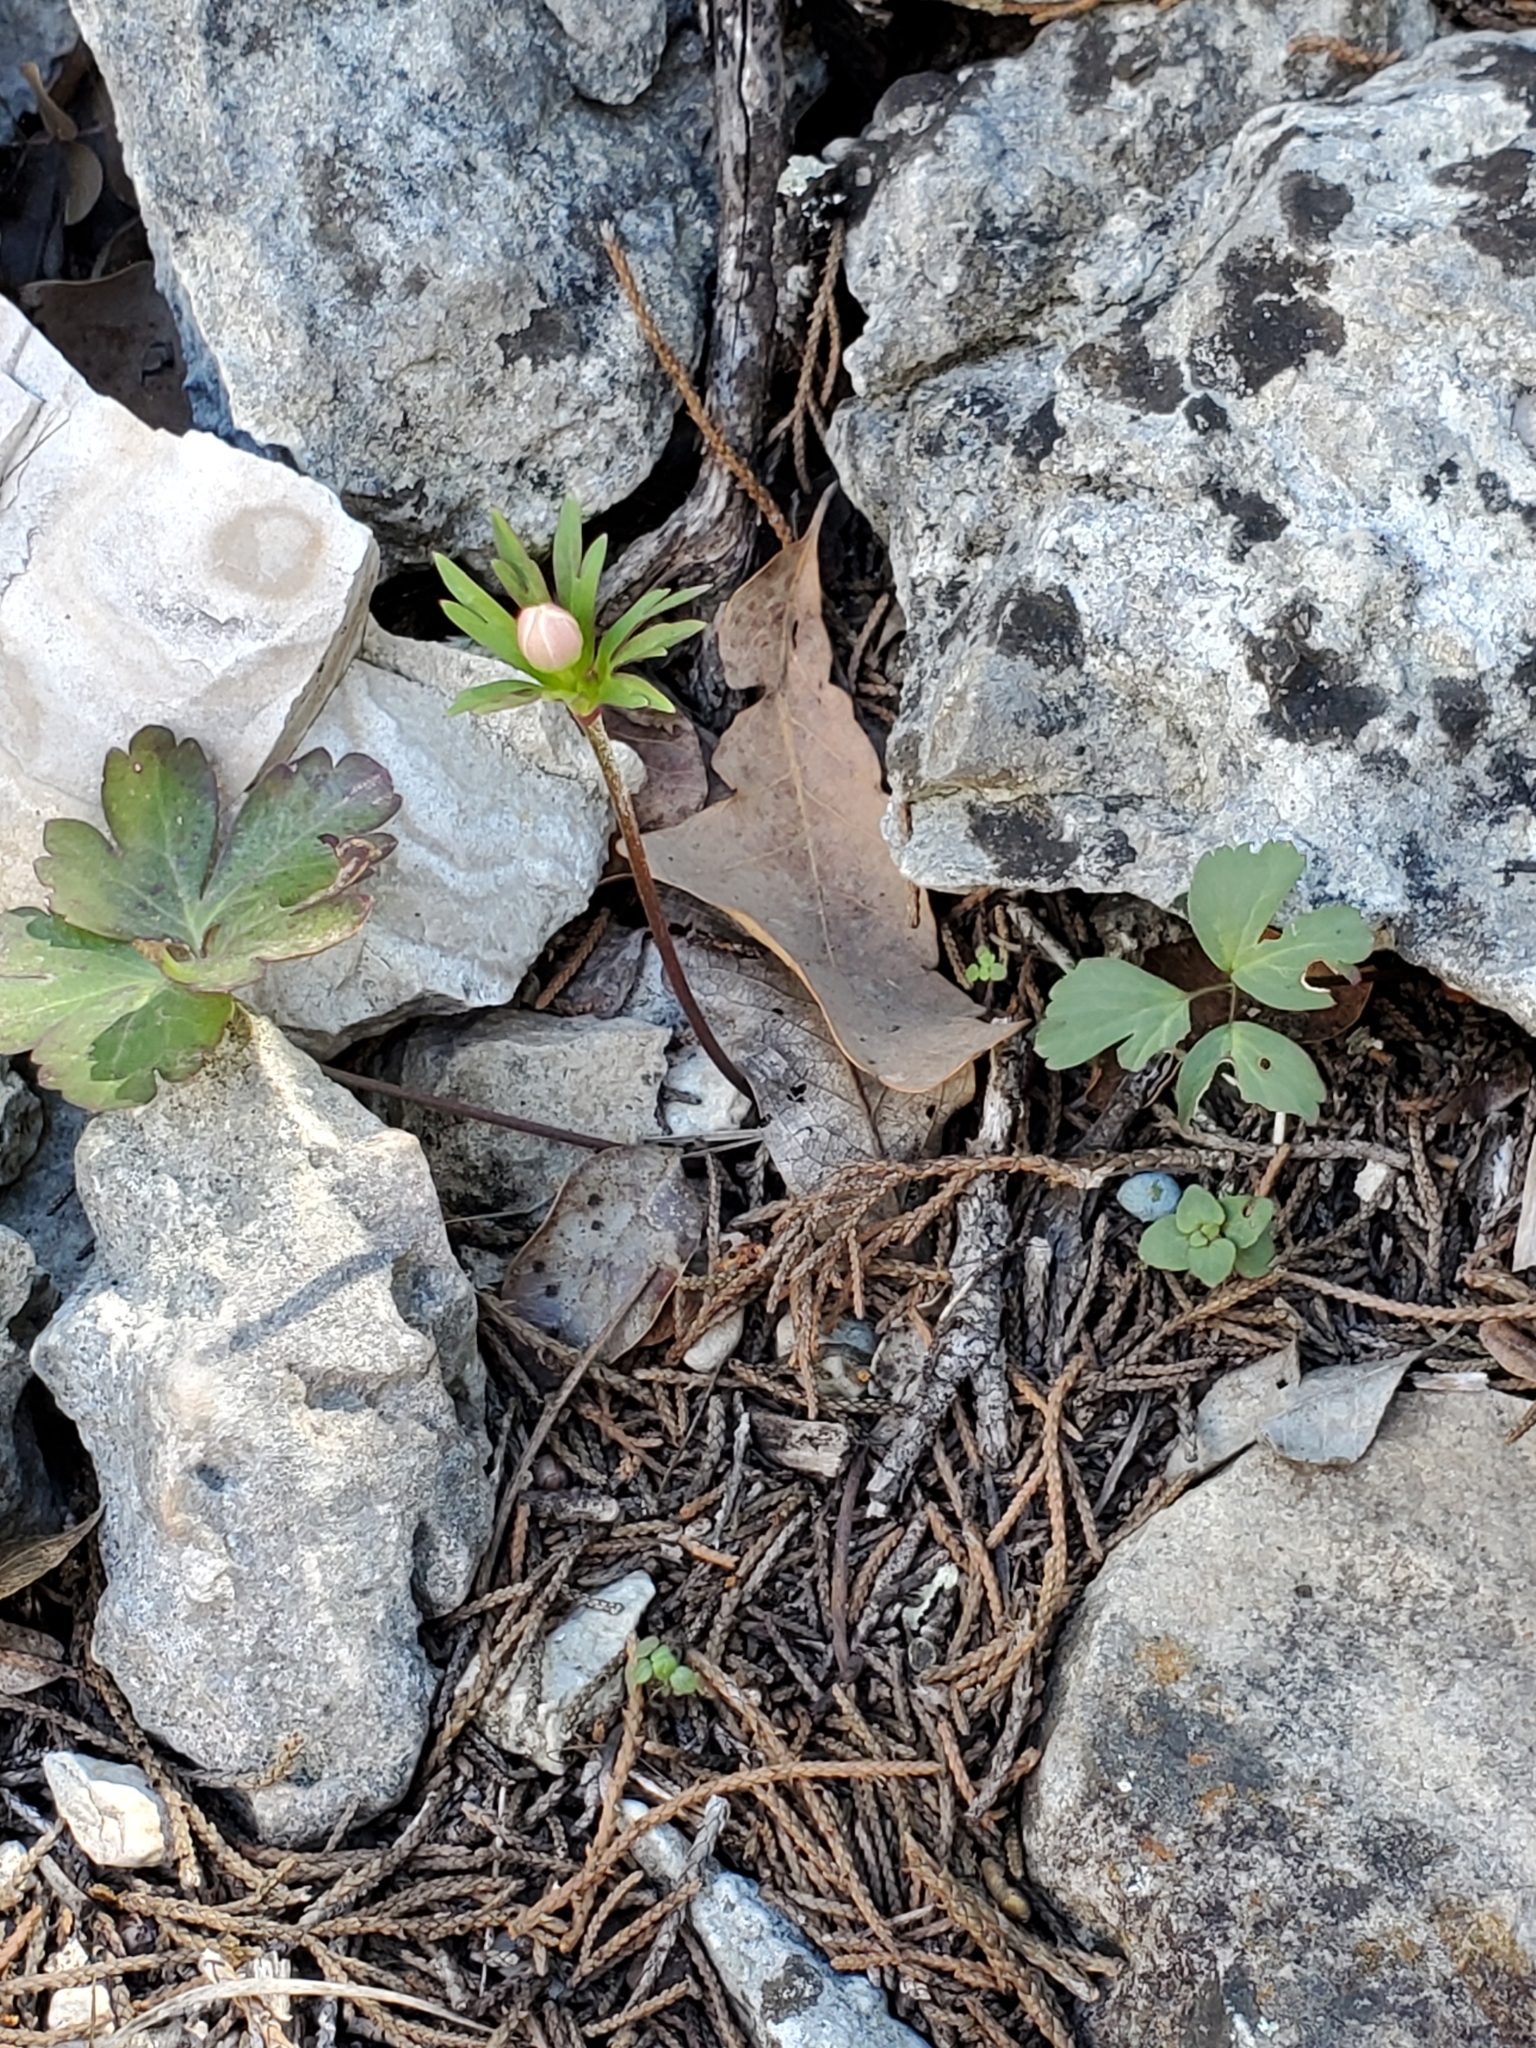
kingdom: Plantae
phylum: Tracheophyta
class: Magnoliopsida
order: Ranunculales
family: Ranunculaceae
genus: Anemone
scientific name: Anemone edwardsiana
